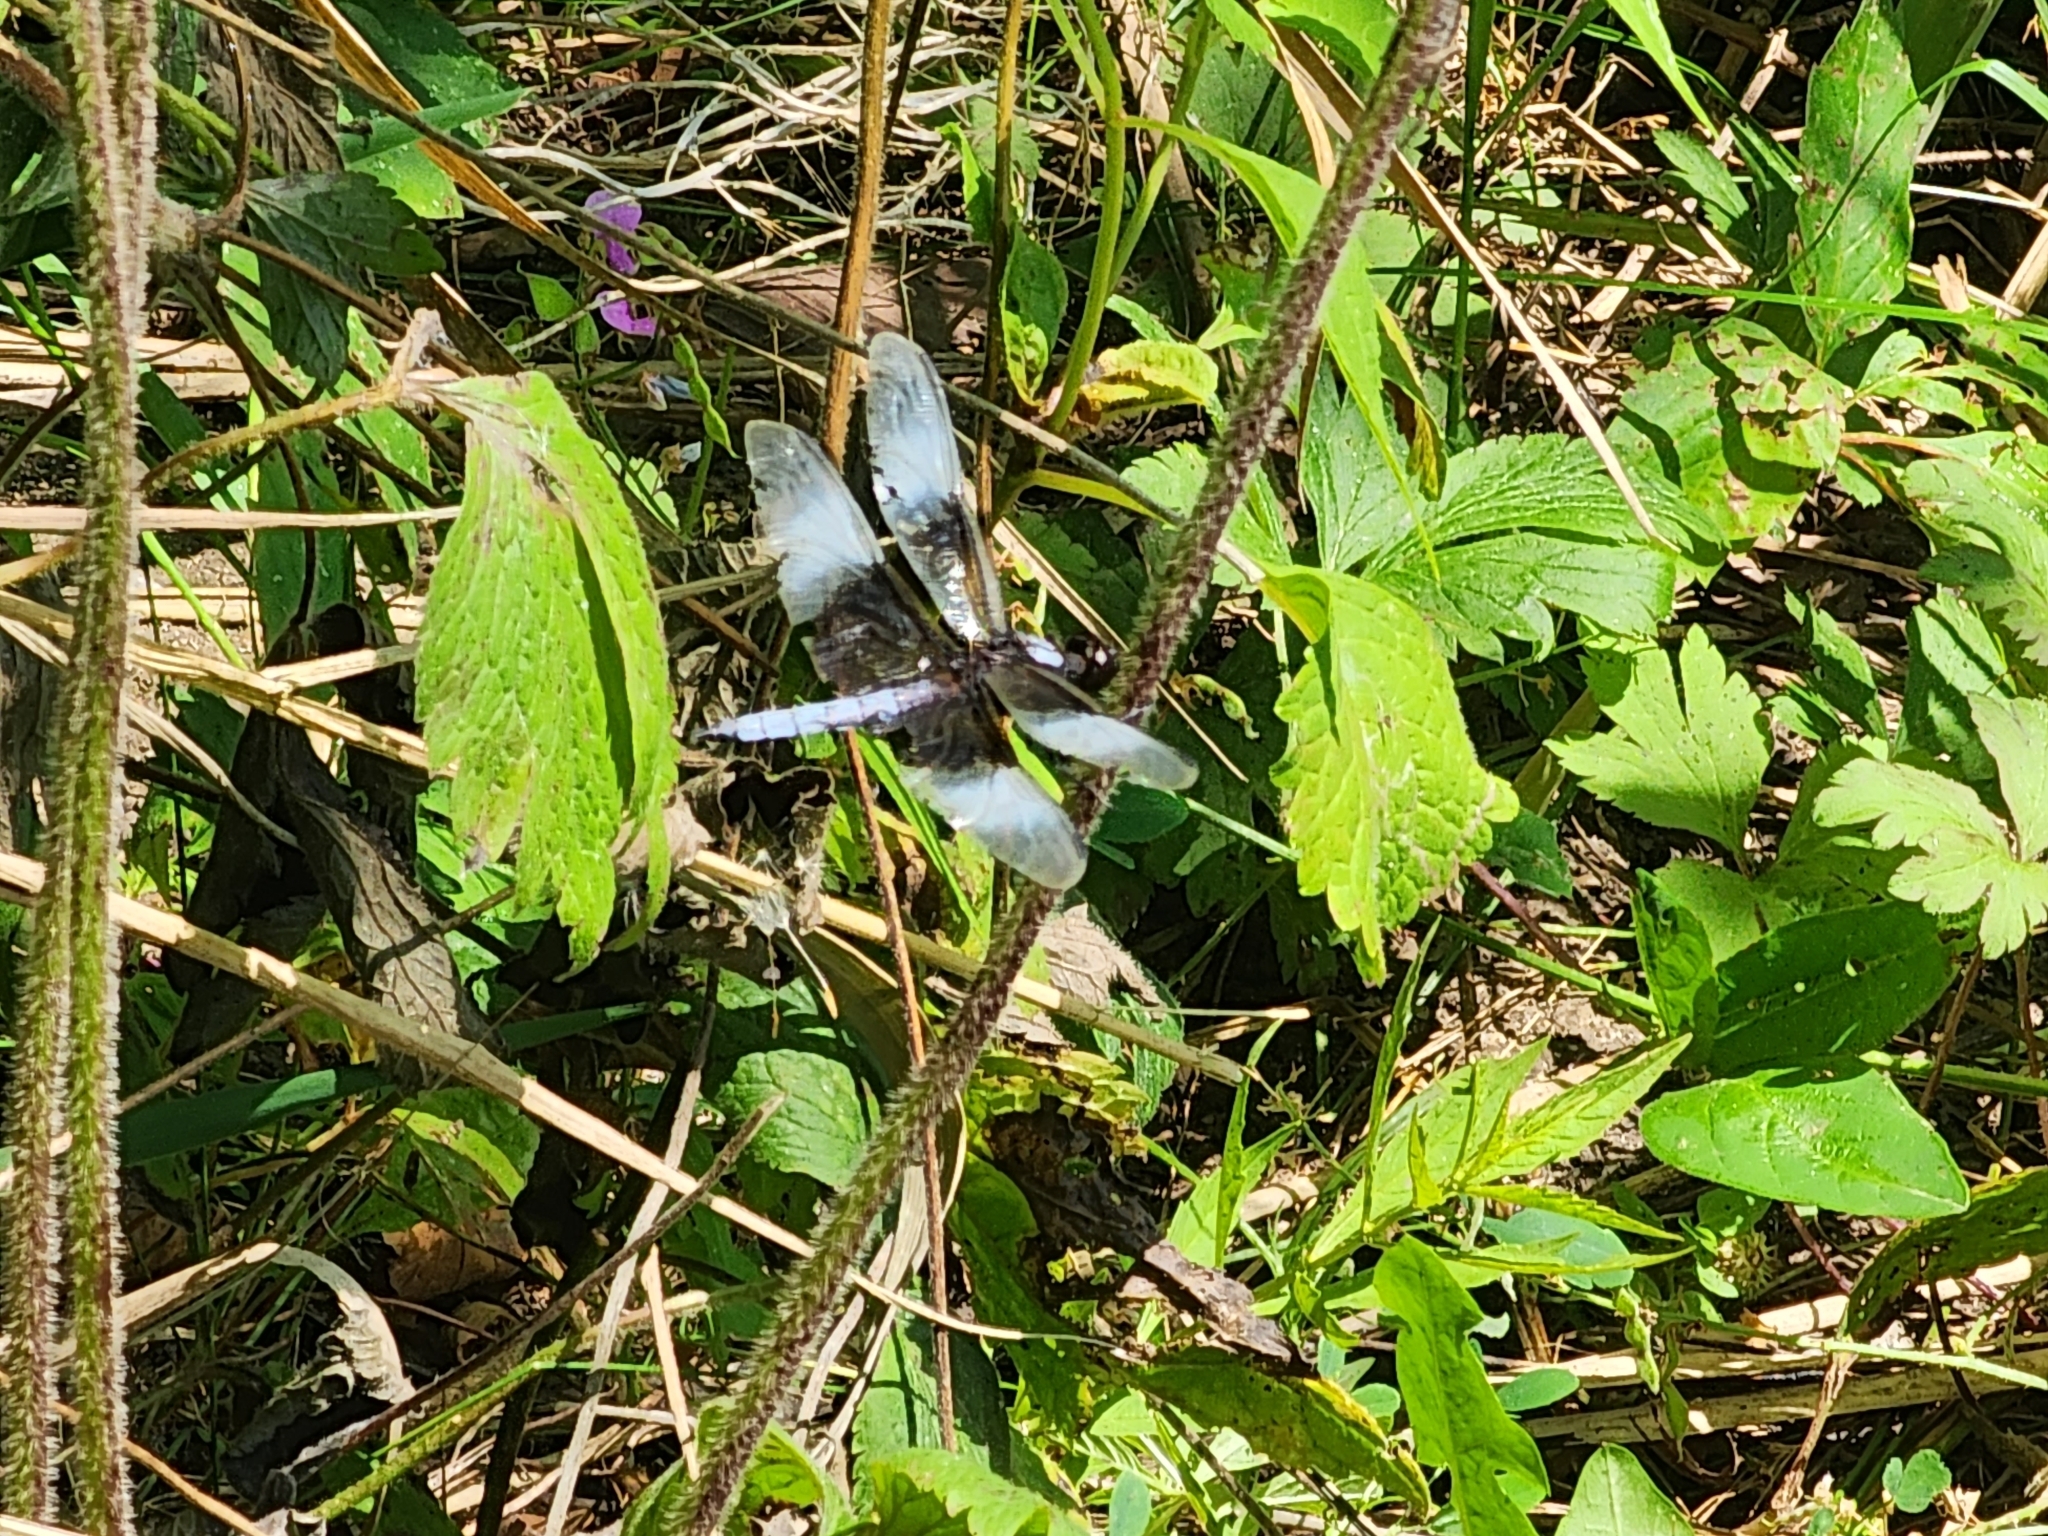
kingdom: Animalia
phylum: Arthropoda
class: Insecta
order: Odonata
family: Libellulidae
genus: Libellula
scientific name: Libellula luctuosa
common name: Widow skimmer
